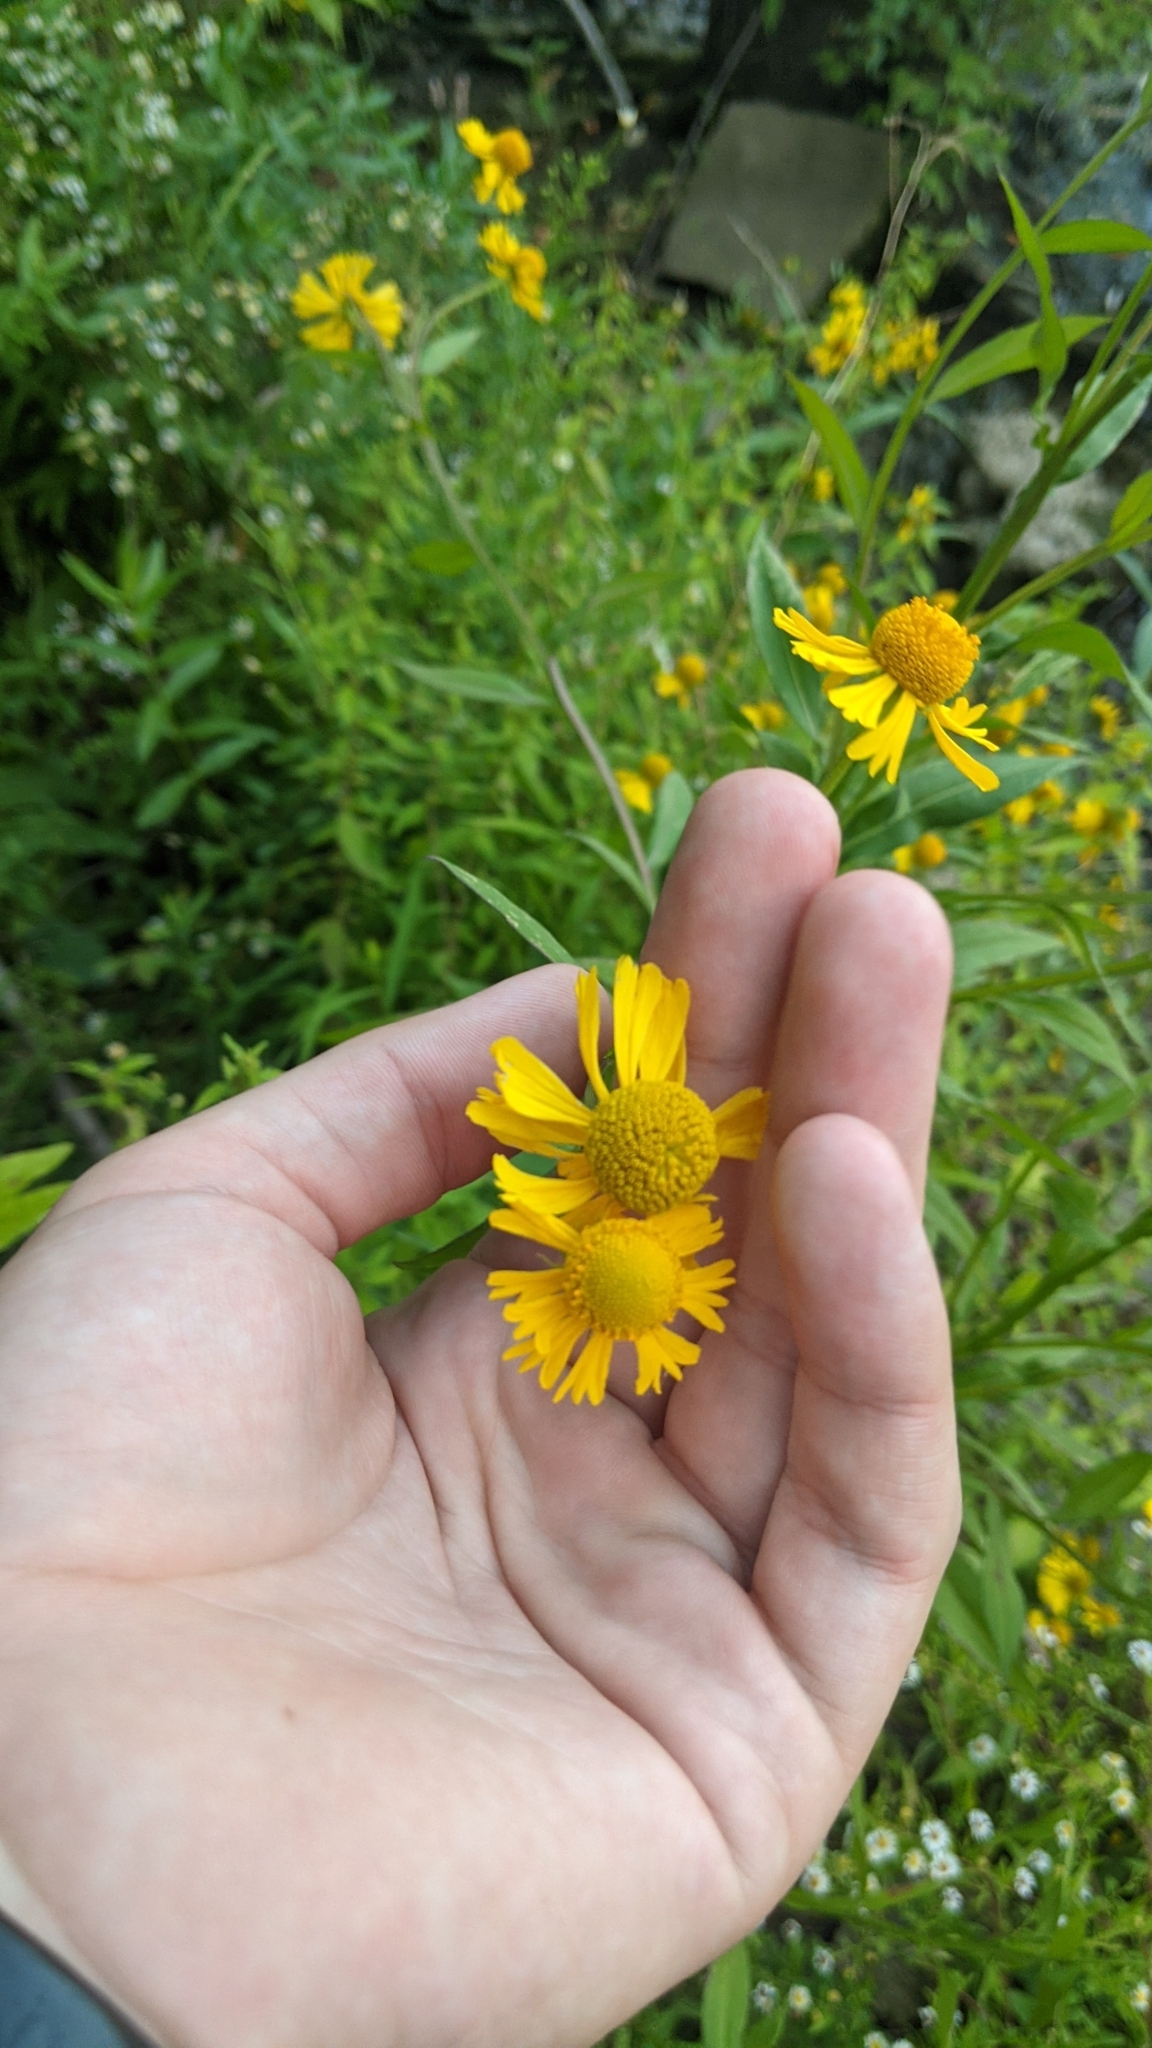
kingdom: Plantae
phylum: Tracheophyta
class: Magnoliopsida
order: Asterales
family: Asteraceae
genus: Helenium
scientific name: Helenium autumnale
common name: Sneezeweed
